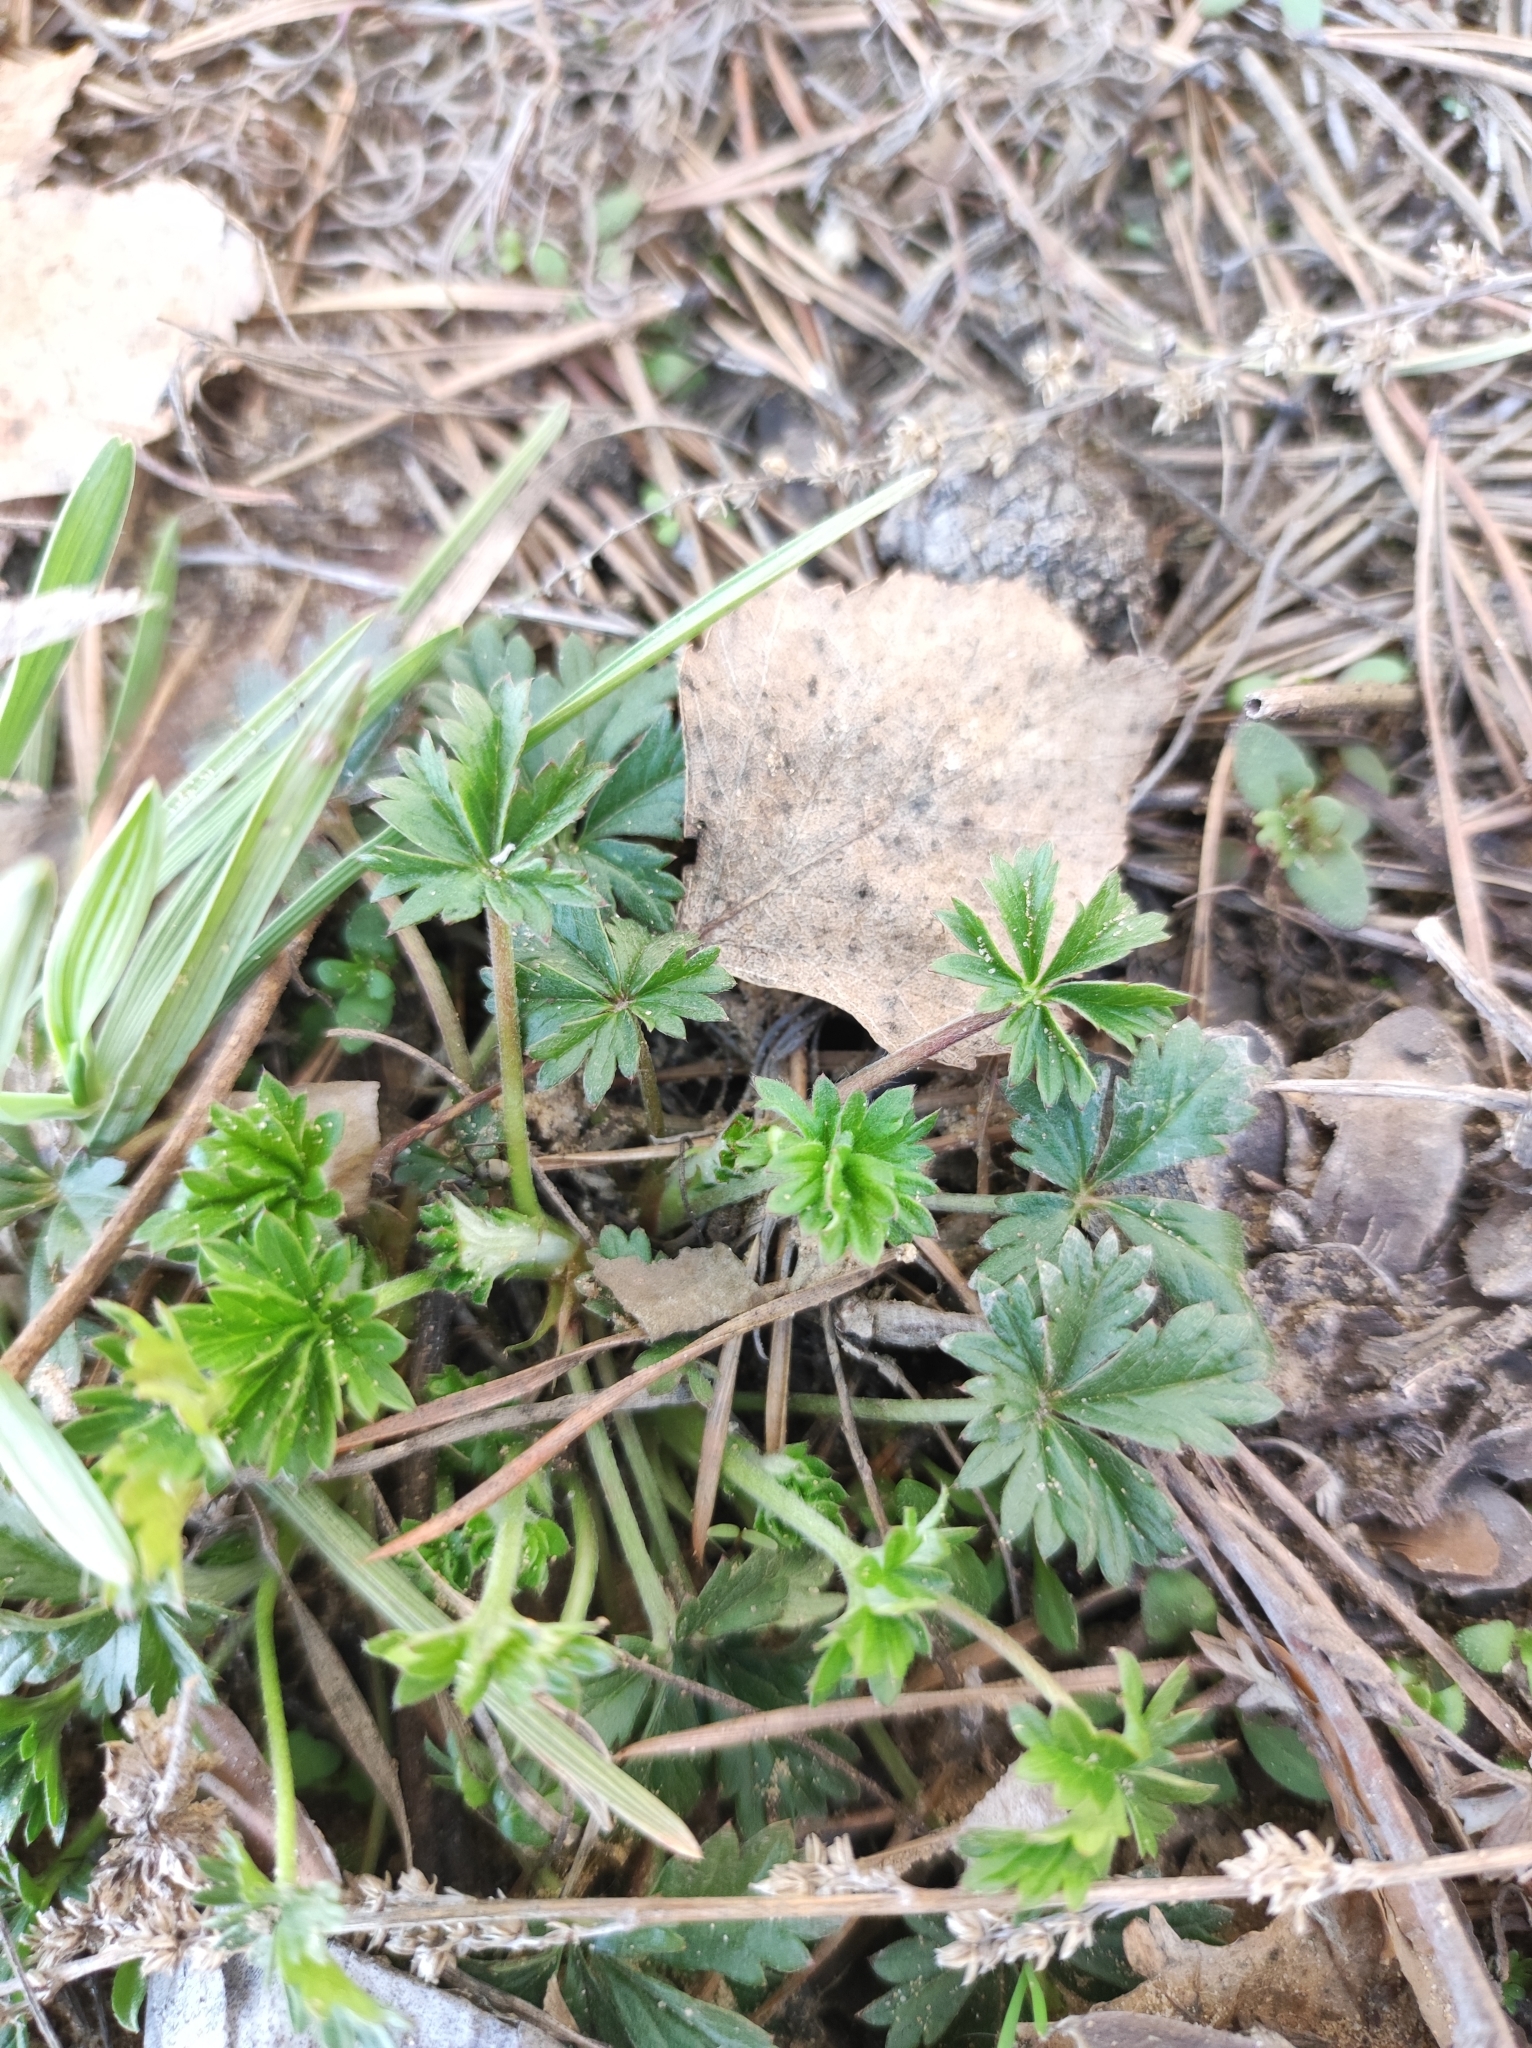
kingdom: Plantae
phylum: Tracheophyta
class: Magnoliopsida
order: Rosales
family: Rosaceae
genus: Potentilla
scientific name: Potentilla argentea
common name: Hoary cinquefoil
